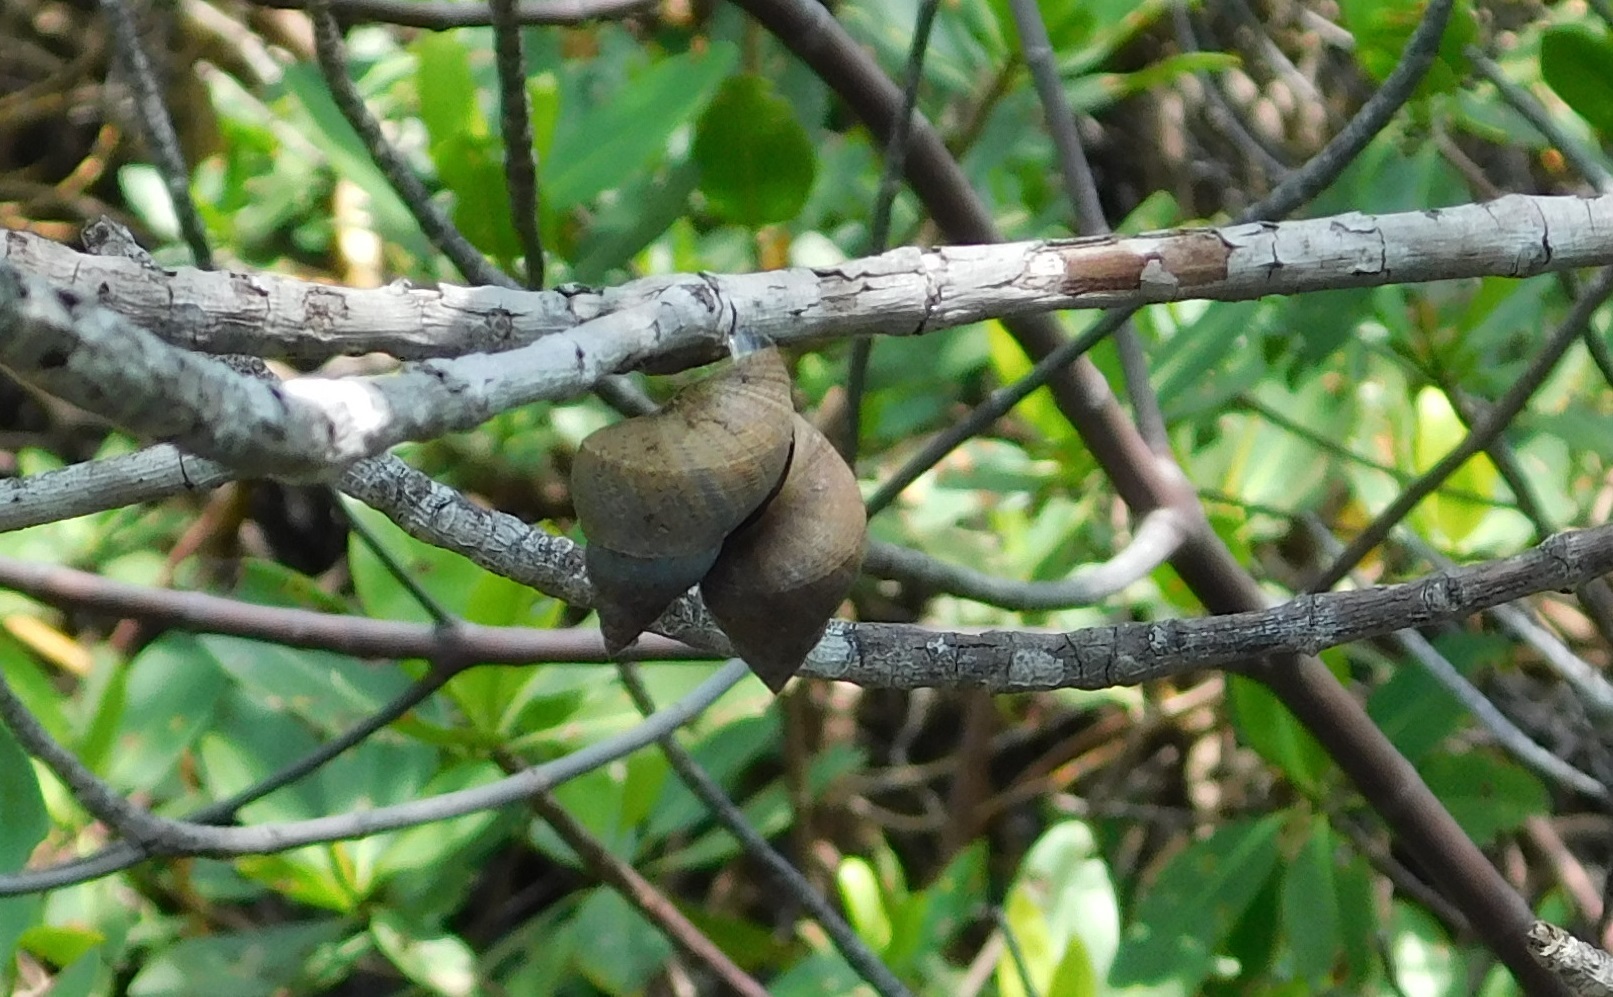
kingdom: Animalia
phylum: Mollusca
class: Gastropoda
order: Littorinimorpha
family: Littorinidae
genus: Littoraria
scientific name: Littoraria angulifera
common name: Mangrove periwinkle
